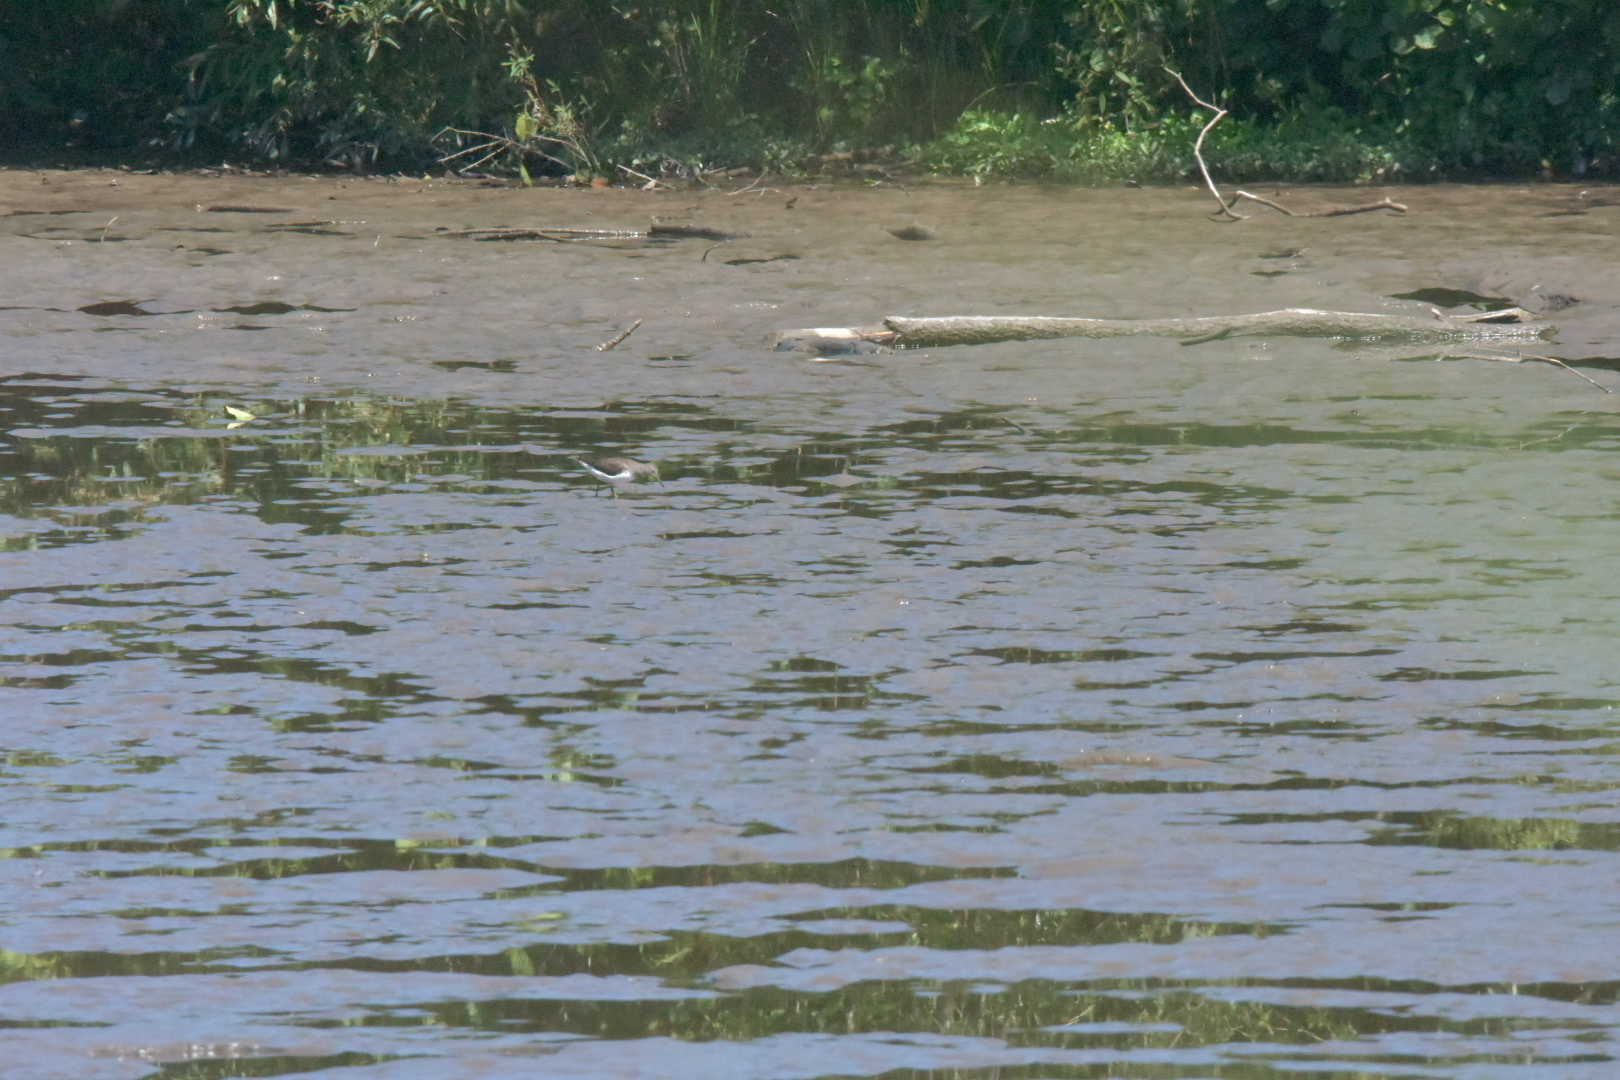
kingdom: Animalia
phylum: Chordata
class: Aves
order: Charadriiformes
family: Scolopacidae
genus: Tringa
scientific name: Tringa ochropus
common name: Green sandpiper
